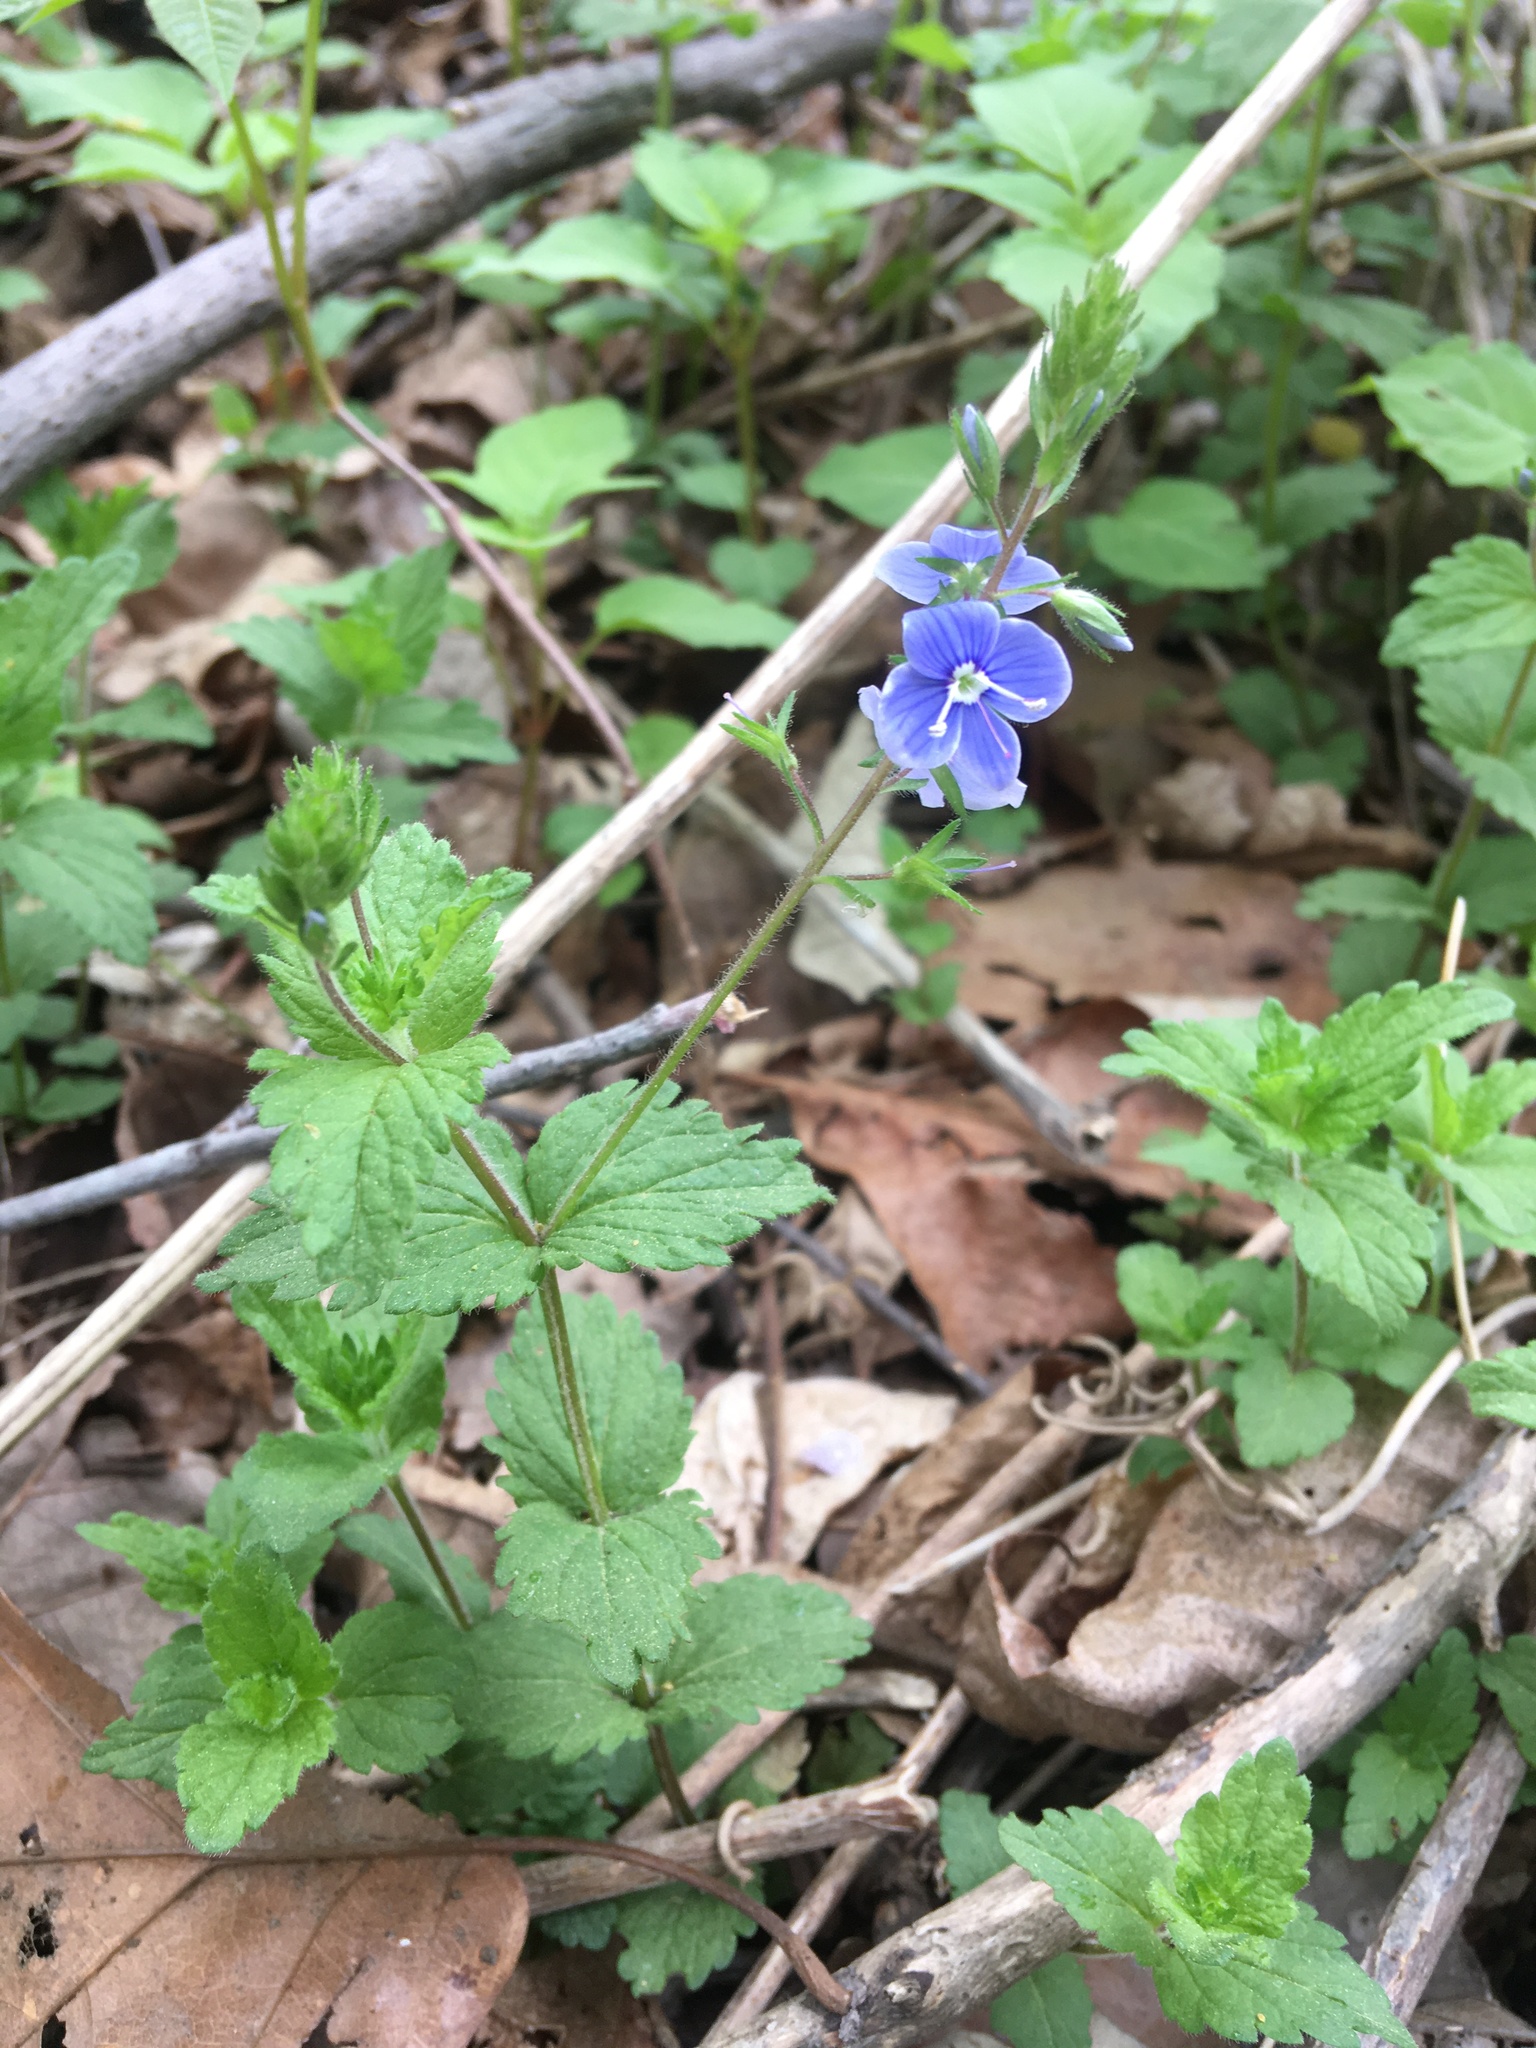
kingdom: Plantae
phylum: Tracheophyta
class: Magnoliopsida
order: Lamiales
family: Plantaginaceae
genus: Veronica
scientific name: Veronica chamaedrys
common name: Germander speedwell
